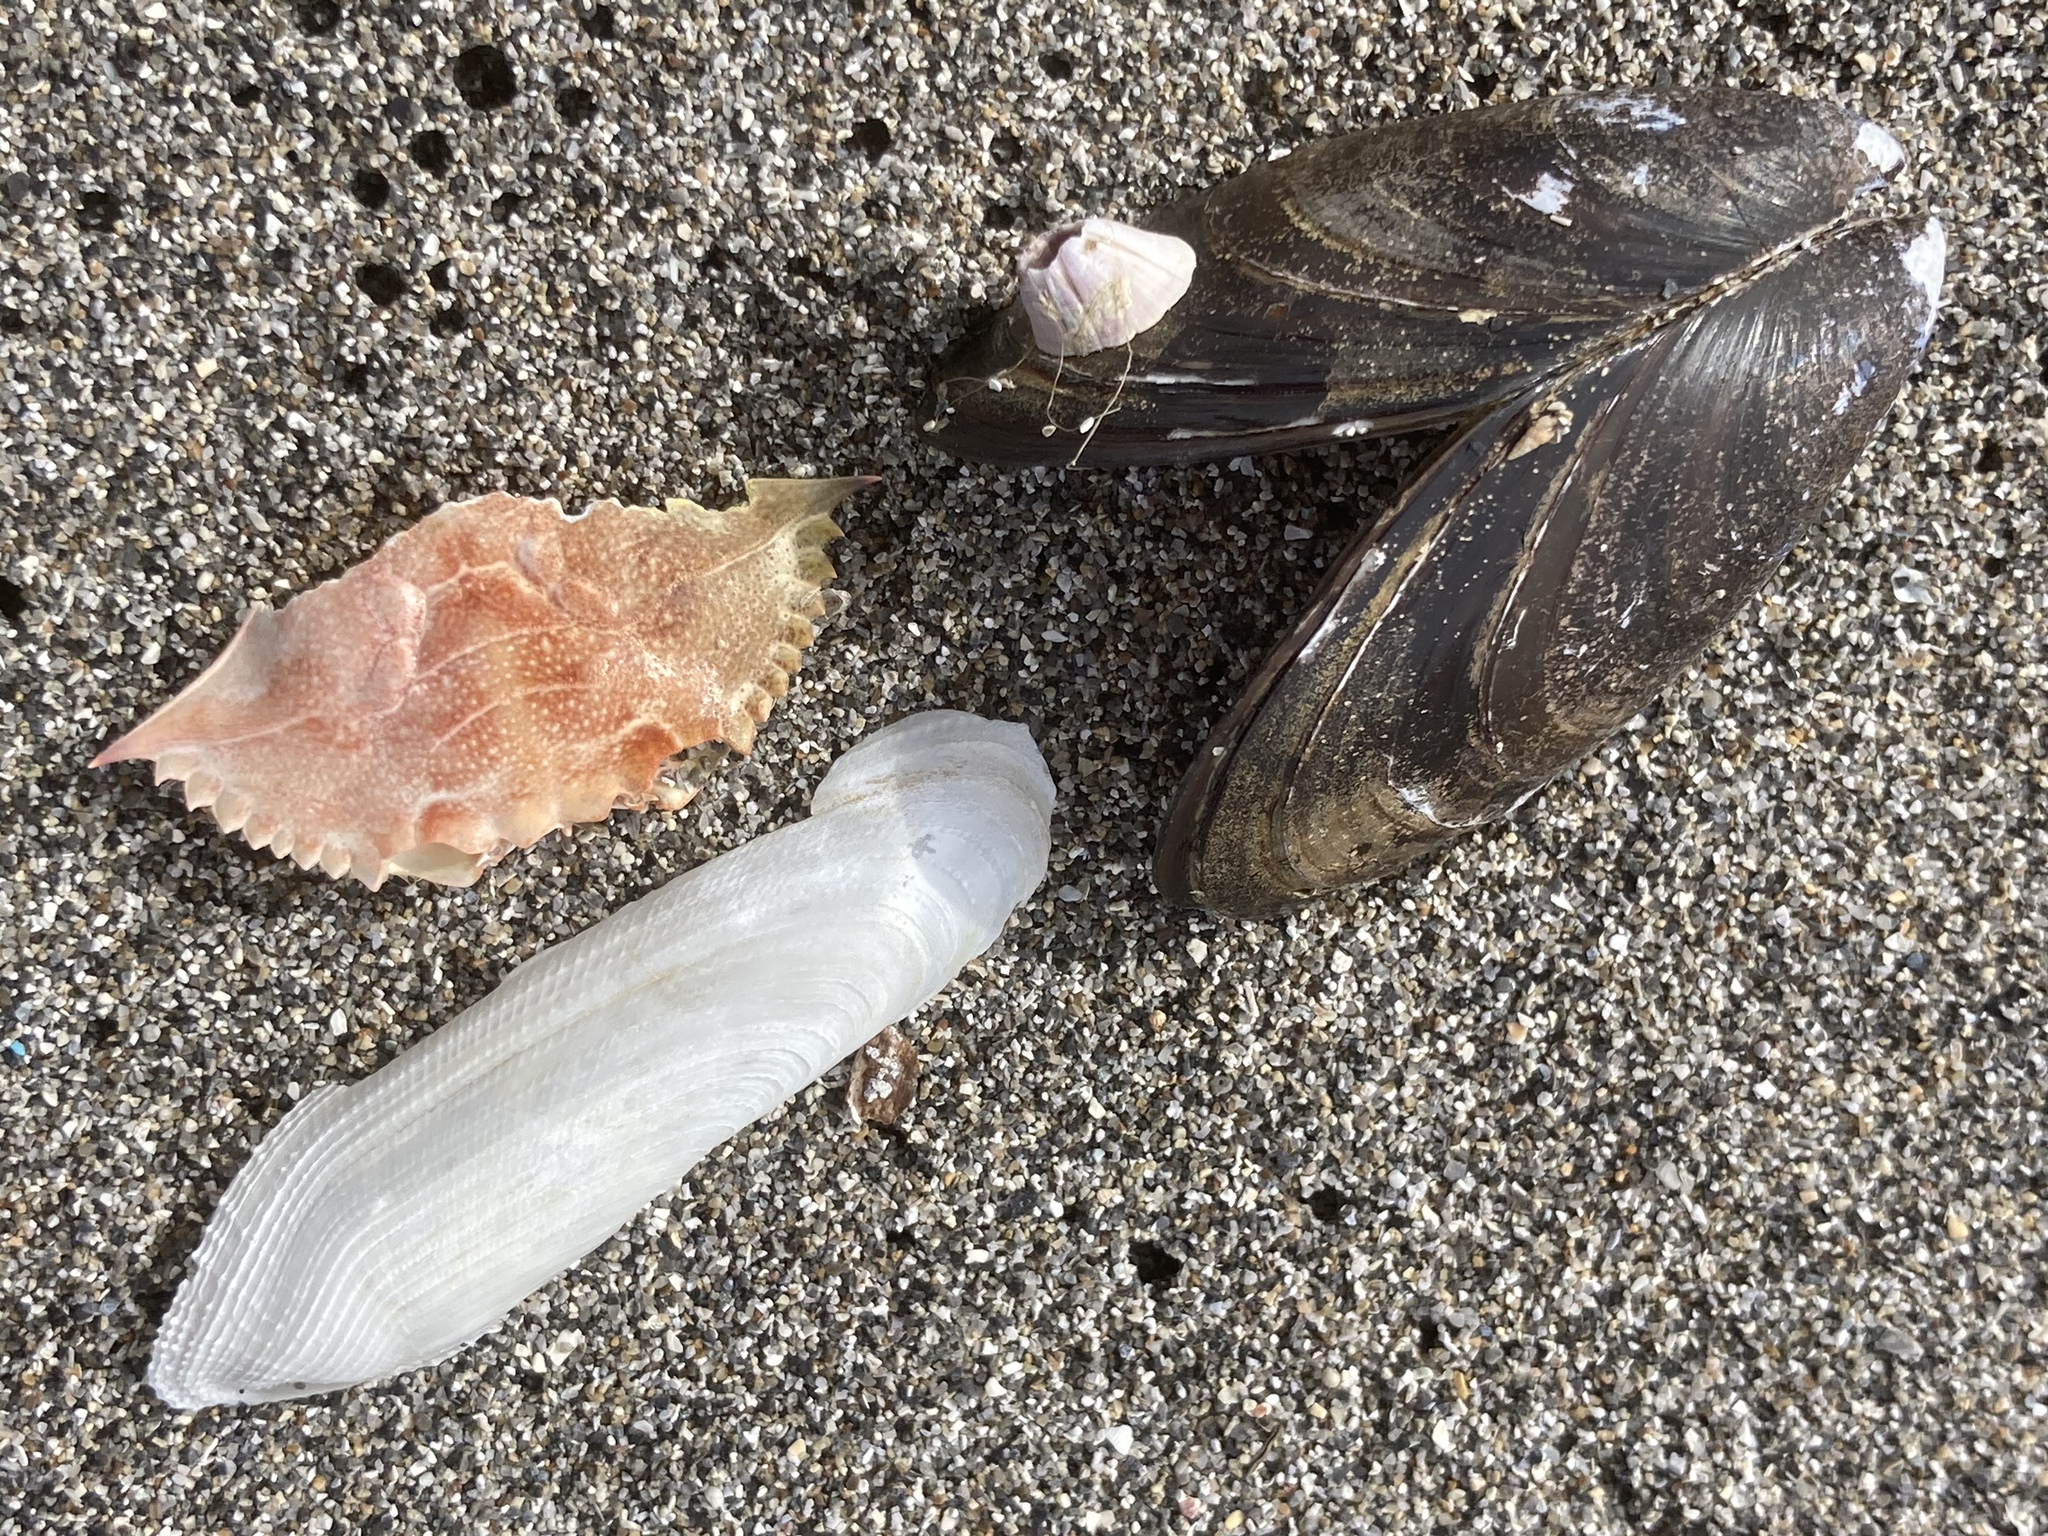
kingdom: Animalia
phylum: Arthropoda
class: Malacostraca
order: Decapoda
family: Portunidae
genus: Callinectes
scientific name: Callinectes sapidus
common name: Blue crab
